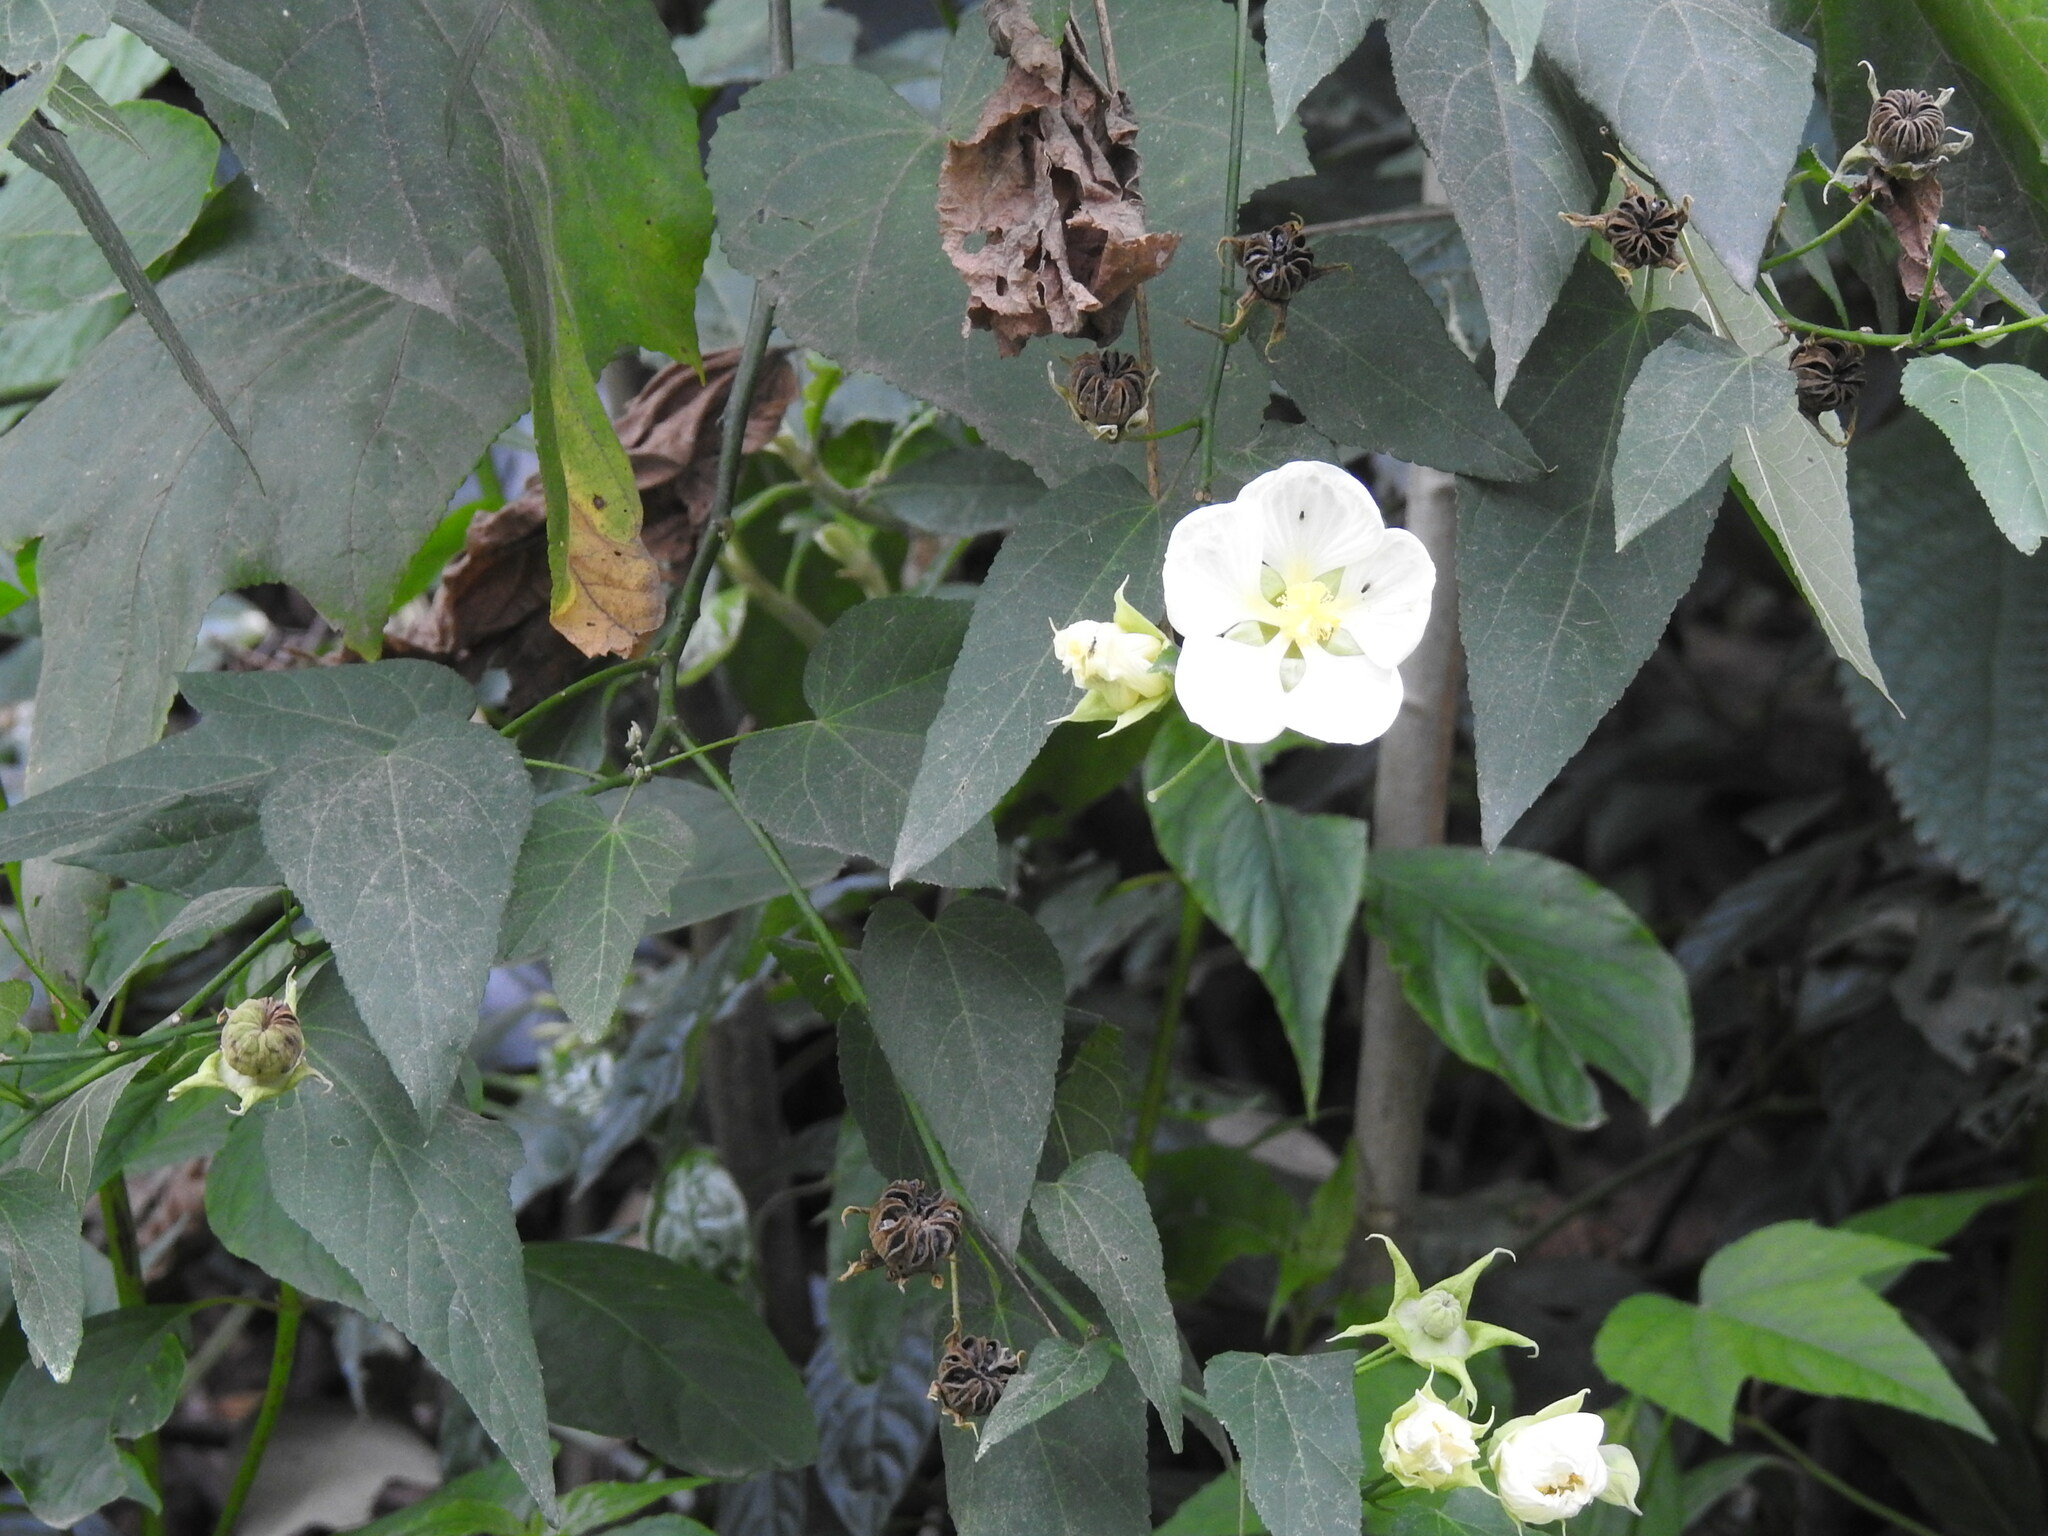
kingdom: Plantae
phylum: Tracheophyta
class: Magnoliopsida
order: Malvales
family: Malvaceae
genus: Callianthe
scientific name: Callianthe nivea
